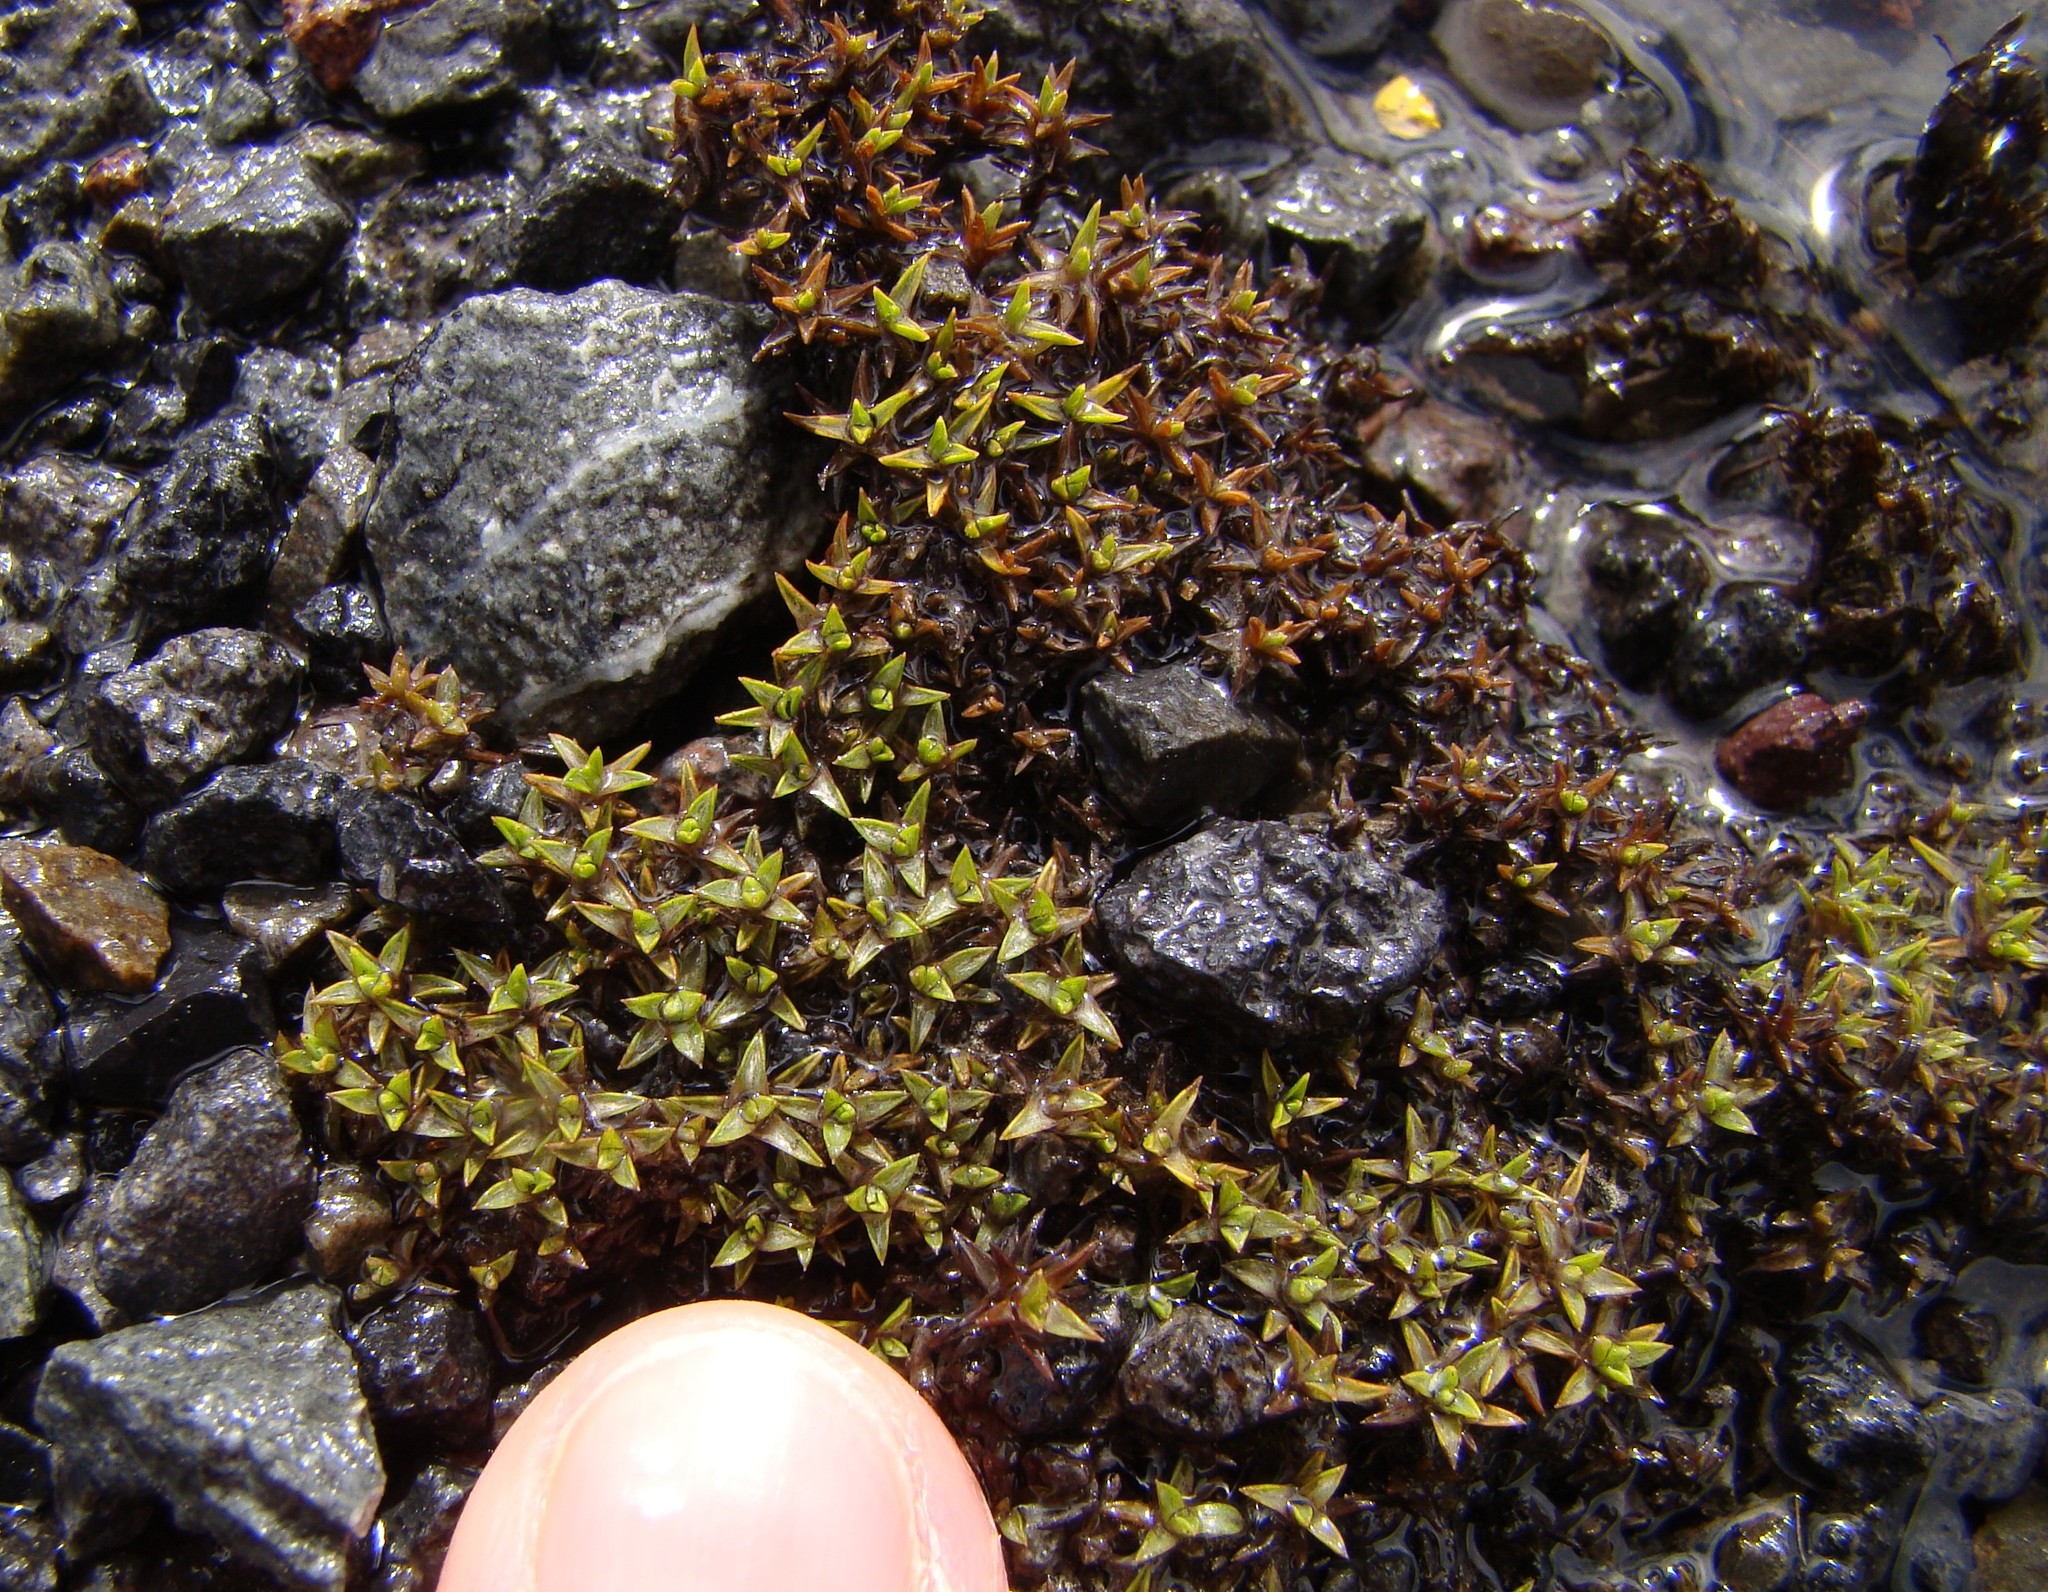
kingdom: Plantae
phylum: Tracheophyta
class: Magnoliopsida
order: Asterales
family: Asteraceae
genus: Raoulia
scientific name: Raoulia tenuicaulis
